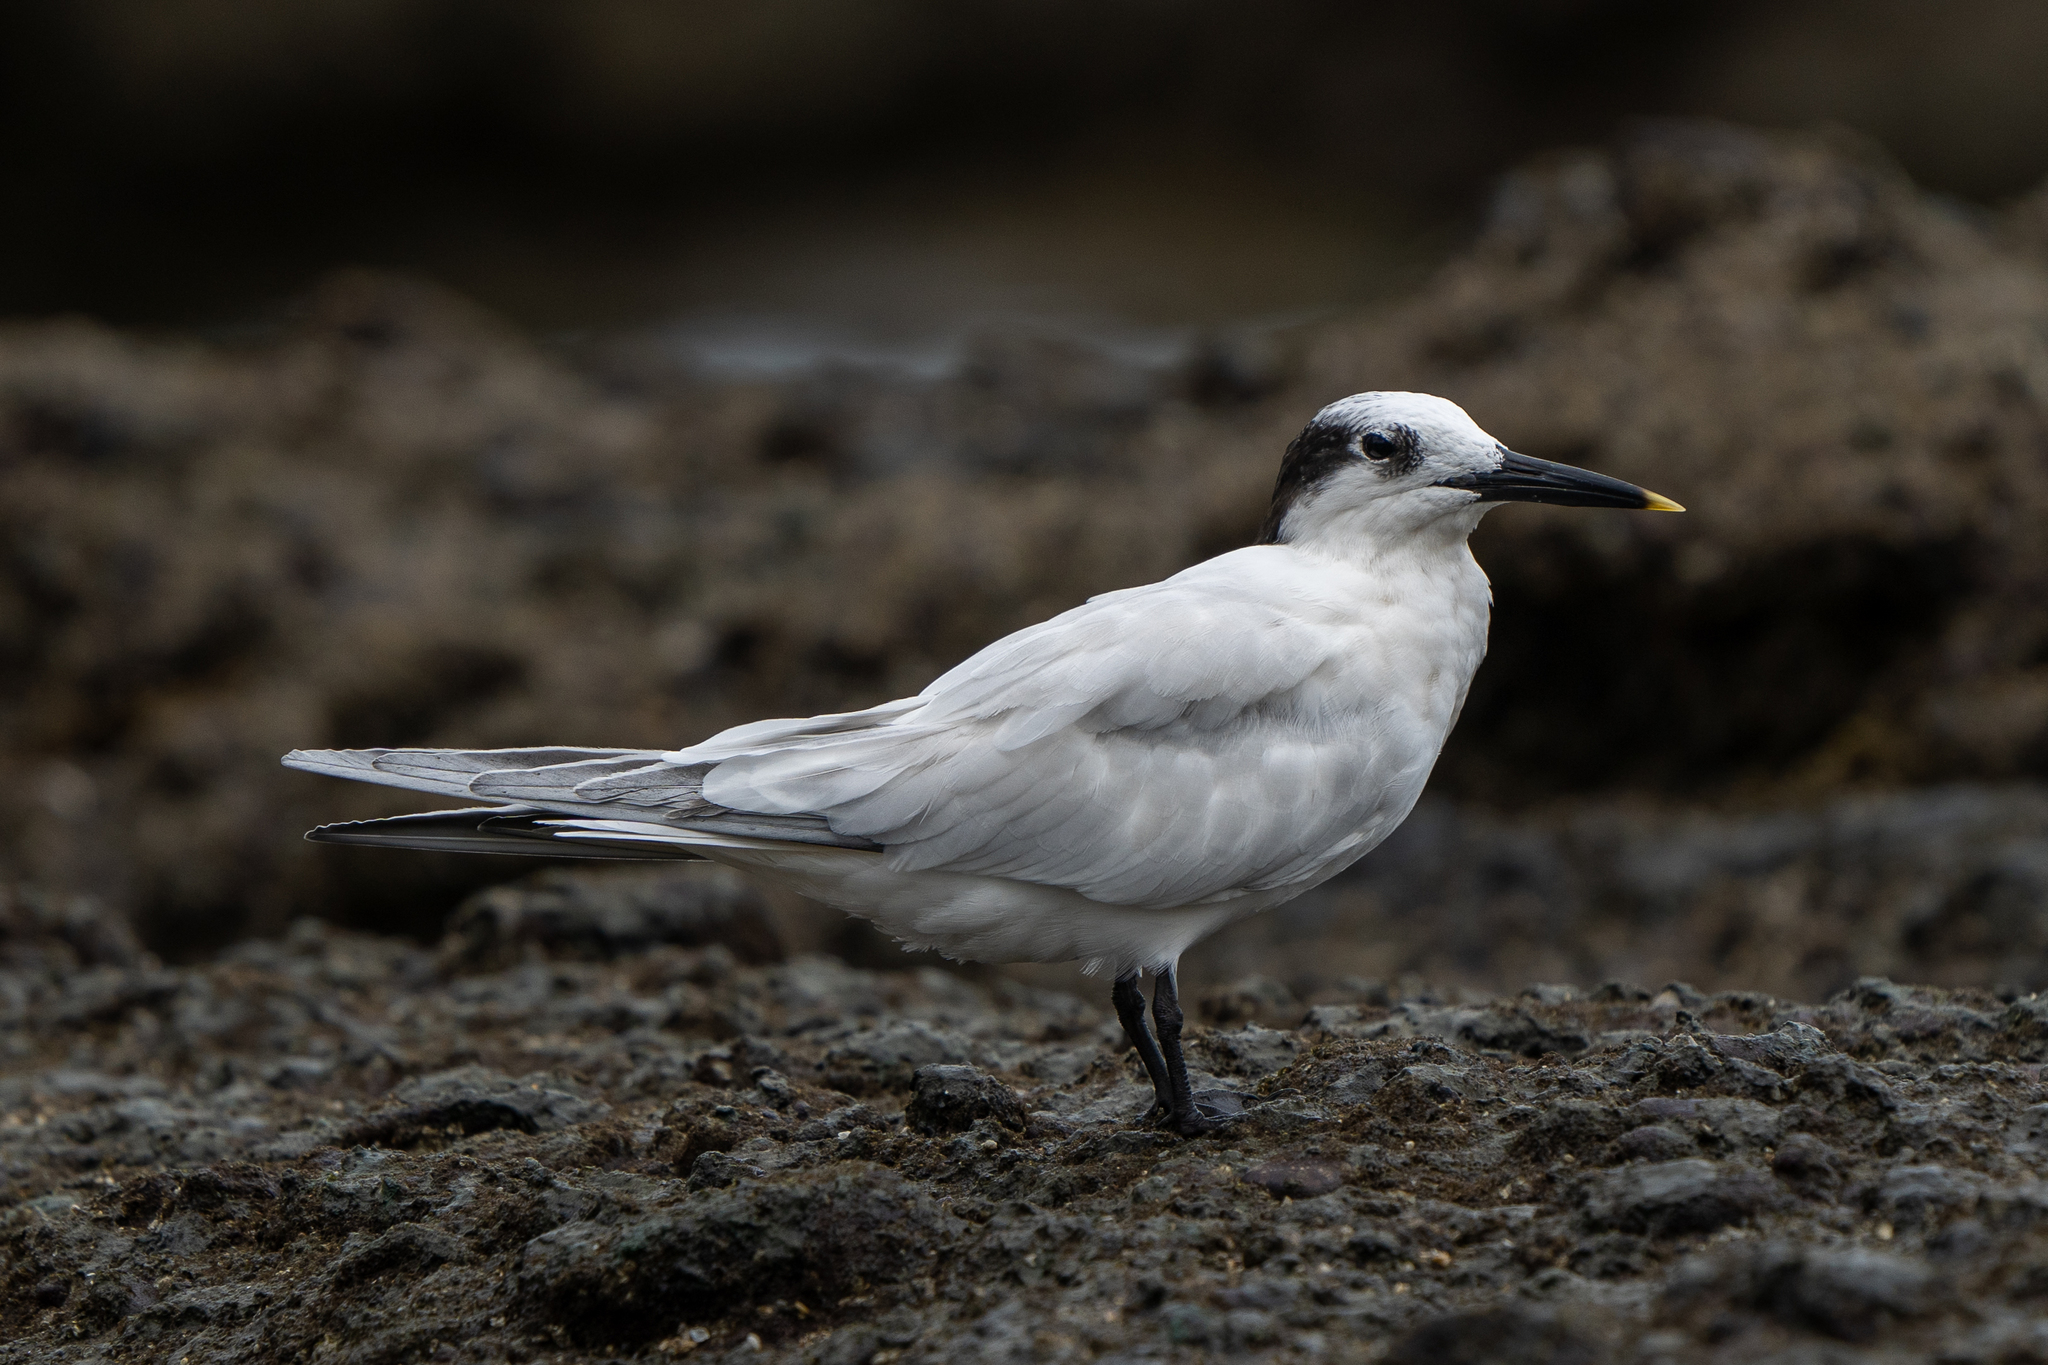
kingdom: Animalia
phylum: Chordata
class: Aves
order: Charadriiformes
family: Laridae
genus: Thalasseus
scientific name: Thalasseus sandvicensis
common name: Sandwich tern
